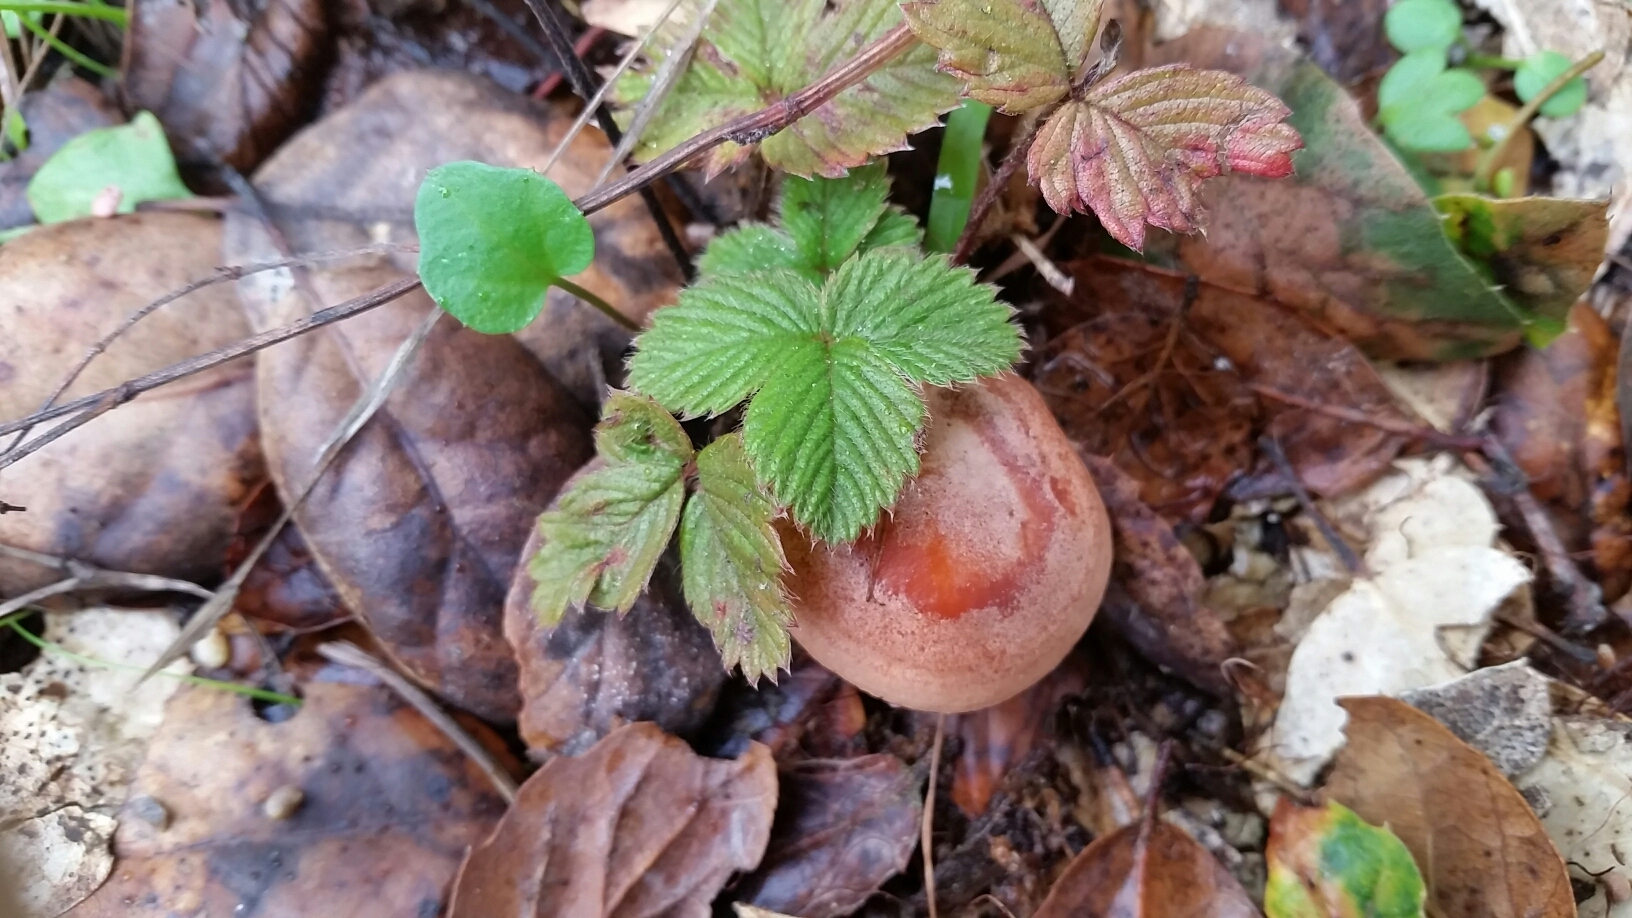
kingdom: Fungi
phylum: Basidiomycota
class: Agaricomycetes
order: Russulales
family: Russulaceae
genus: Lactarius
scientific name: Lactarius xanthogalactus
